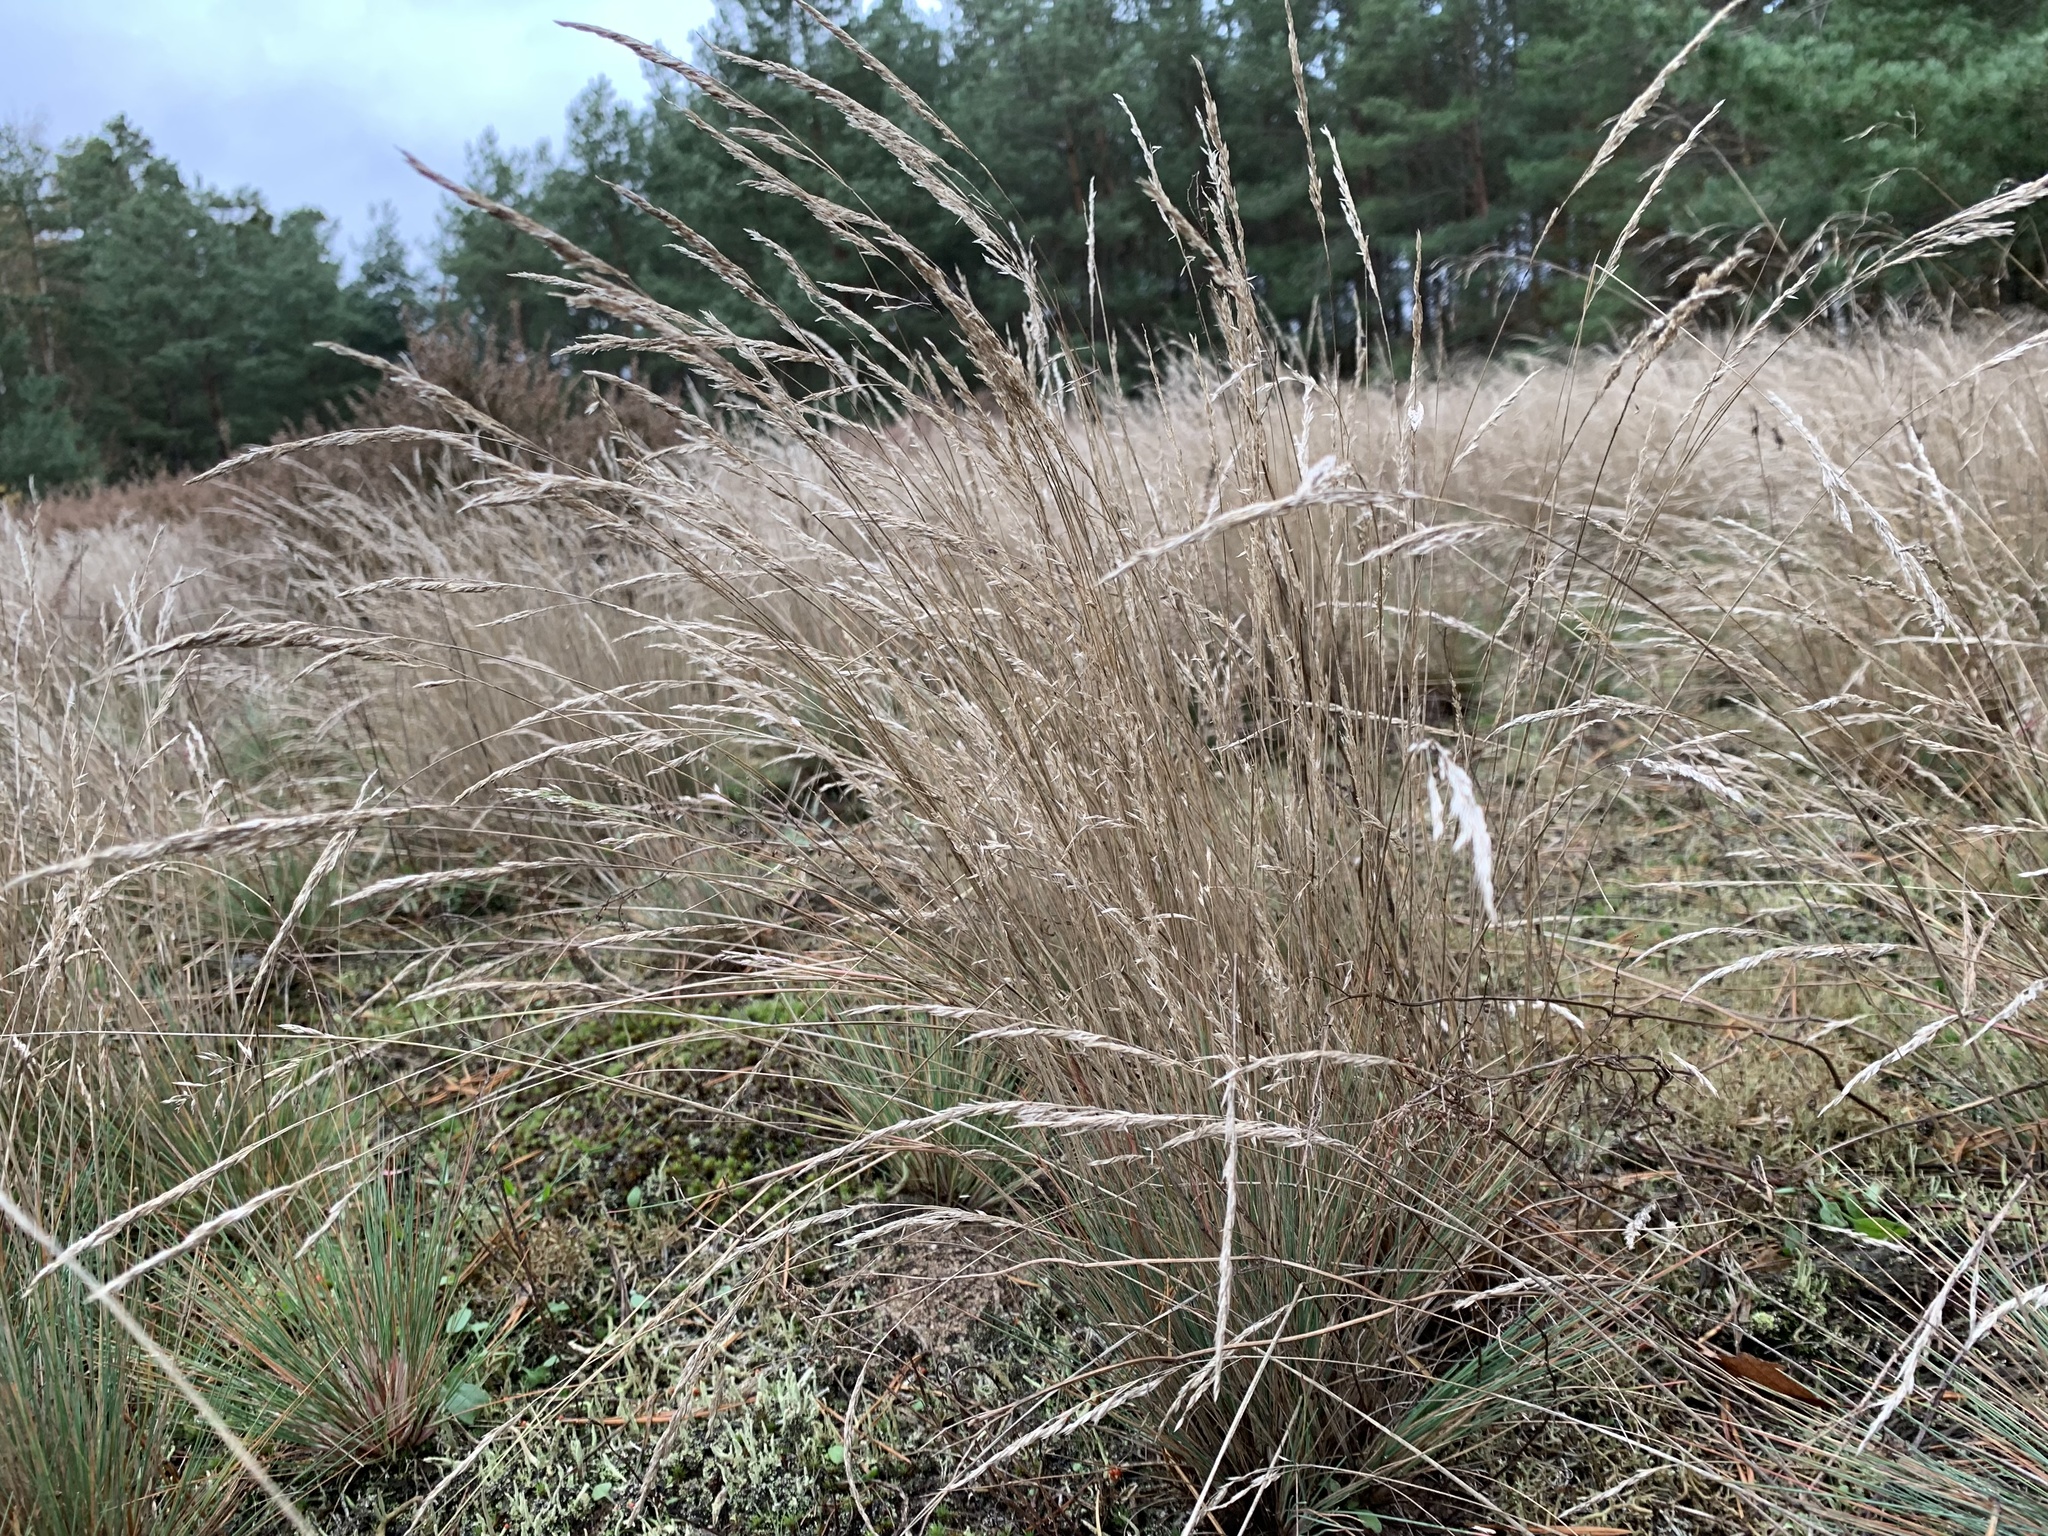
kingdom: Plantae
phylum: Tracheophyta
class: Liliopsida
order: Poales
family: Poaceae
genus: Corynephorus
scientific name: Corynephorus canescens
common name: Grey hair-grass
